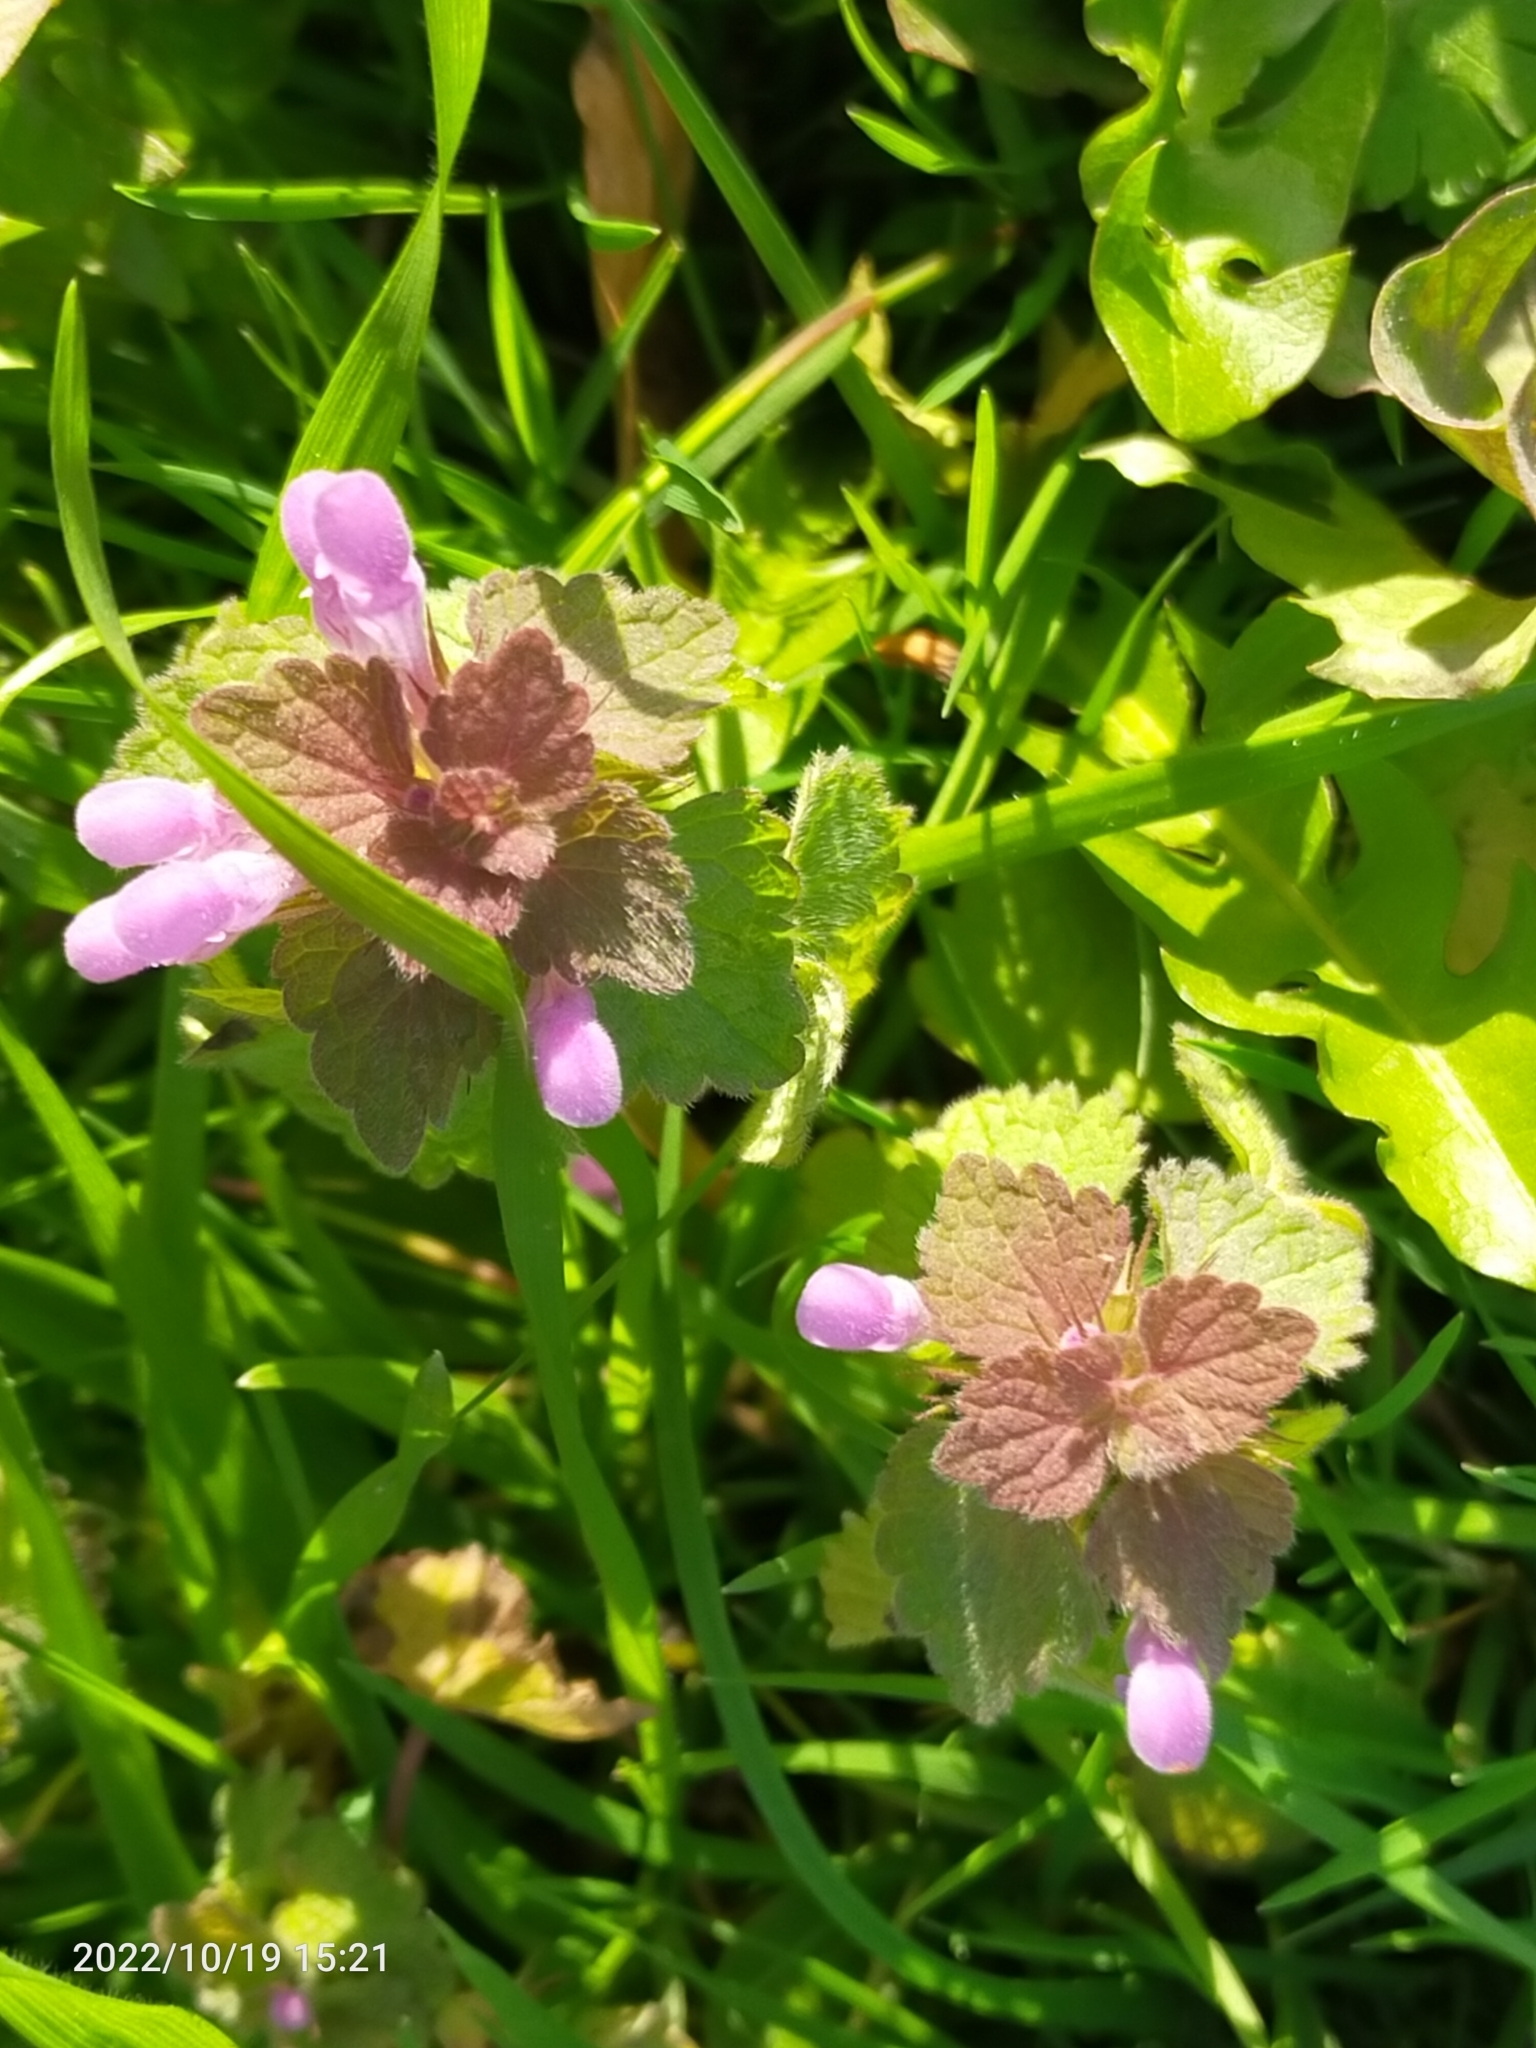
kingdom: Plantae
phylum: Tracheophyta
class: Magnoliopsida
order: Lamiales
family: Lamiaceae
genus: Lamium
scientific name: Lamium purpureum
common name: Red dead-nettle
